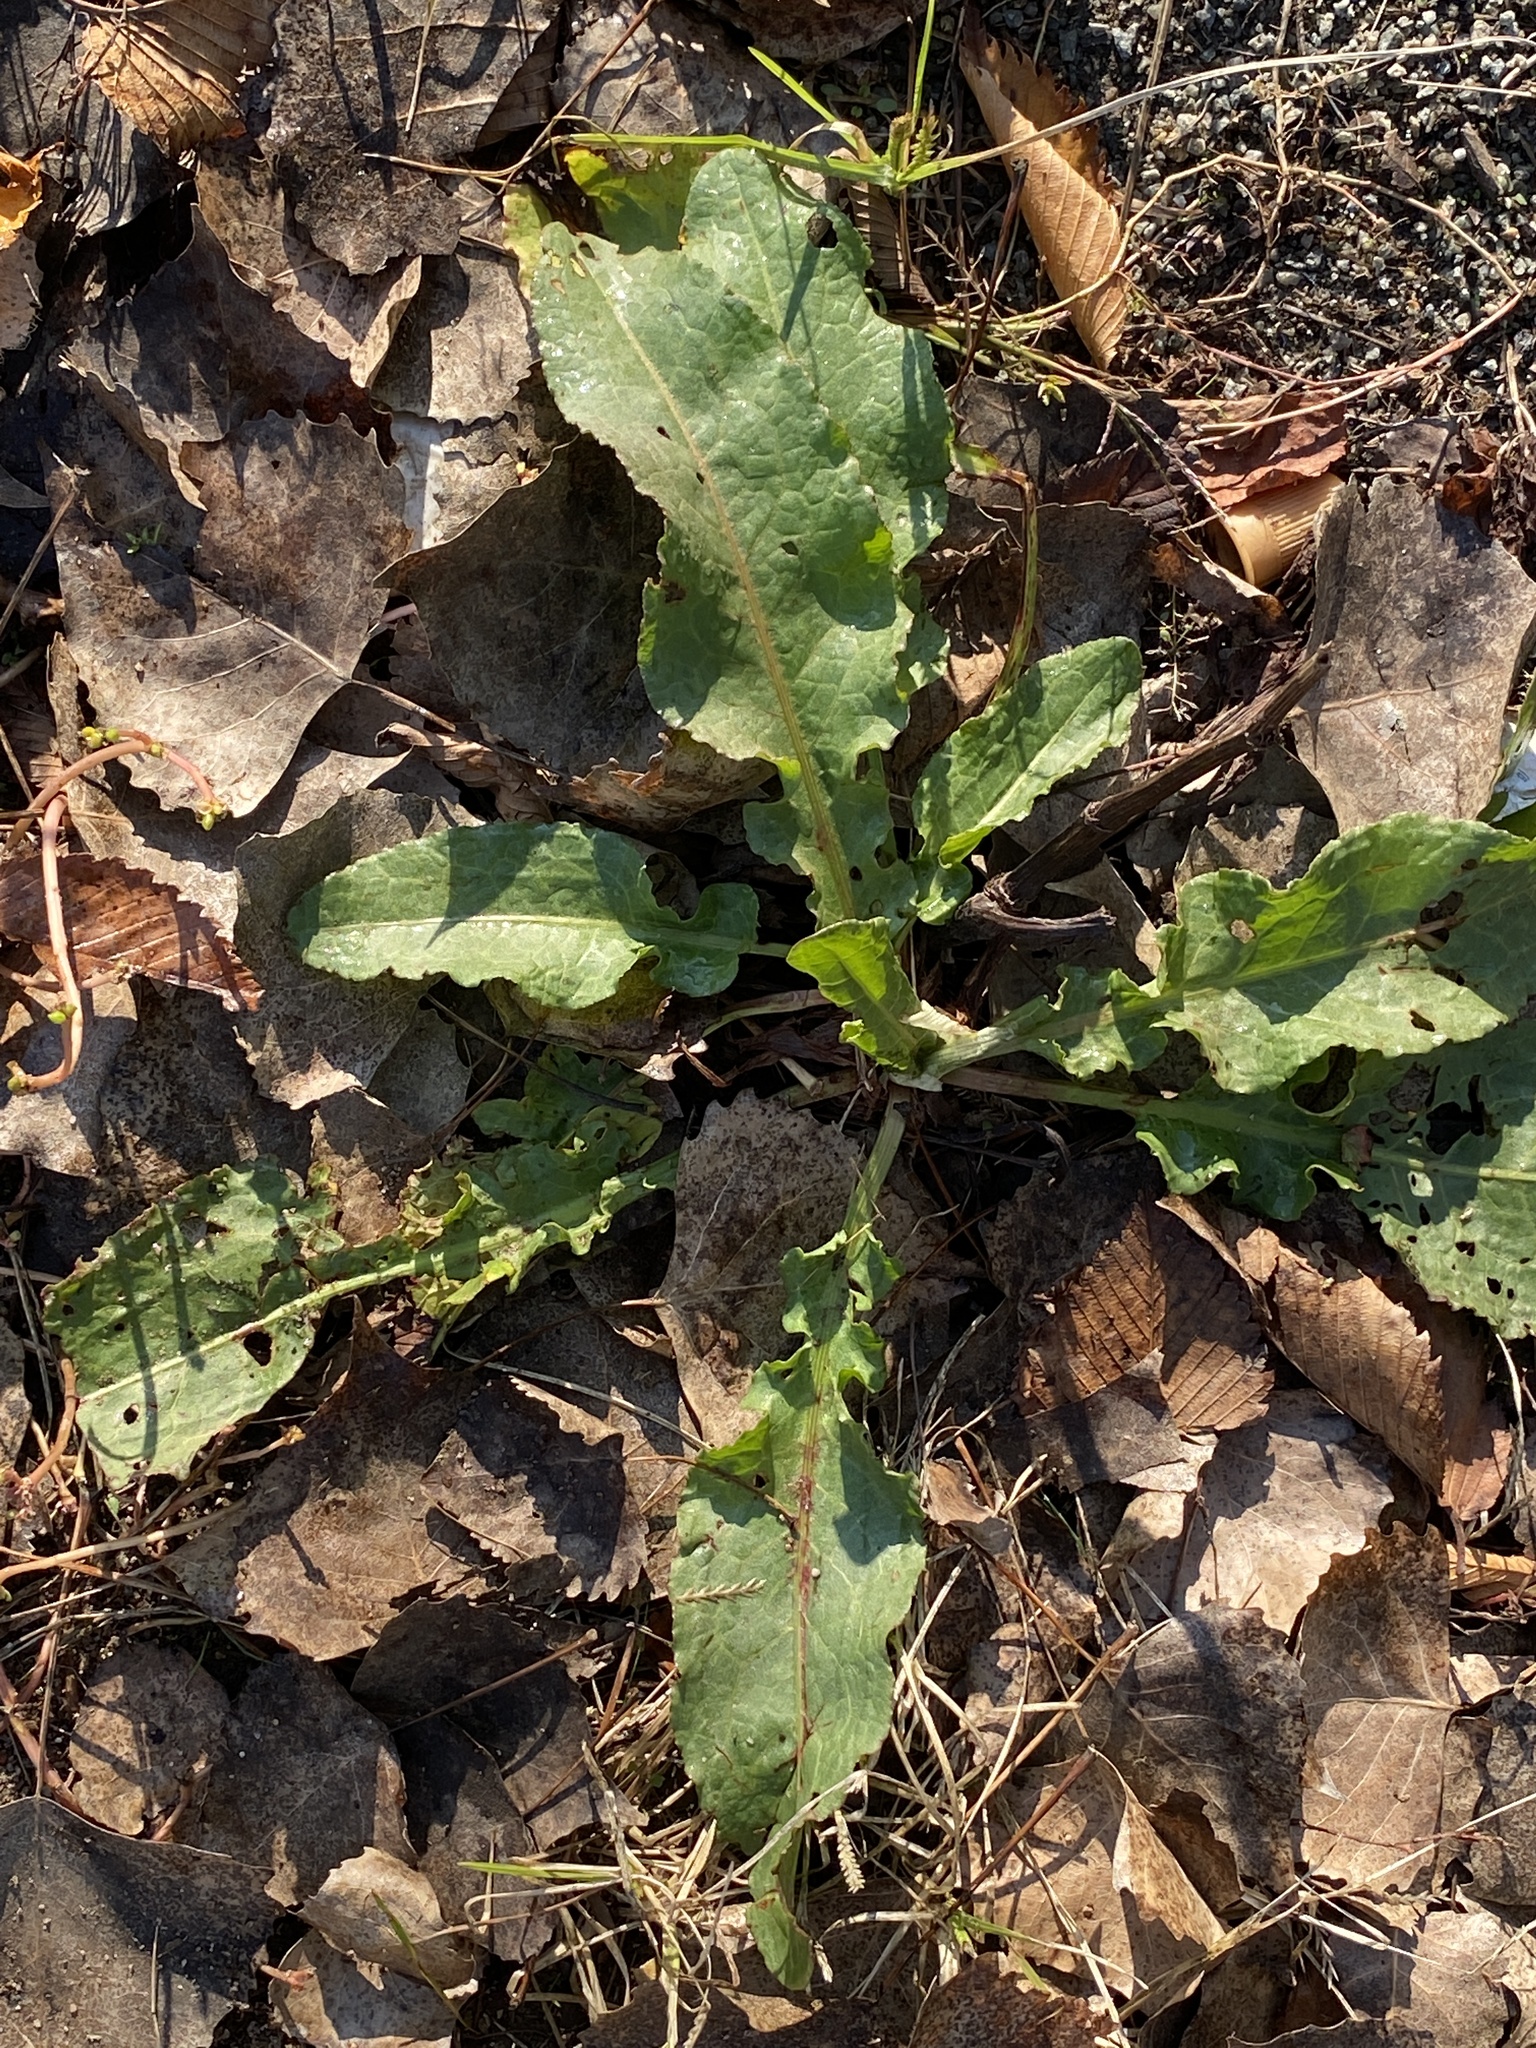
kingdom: Plantae
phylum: Tracheophyta
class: Magnoliopsida
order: Caryophyllales
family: Polygonaceae
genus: Rumex
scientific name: Rumex crispus
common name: Curled dock
